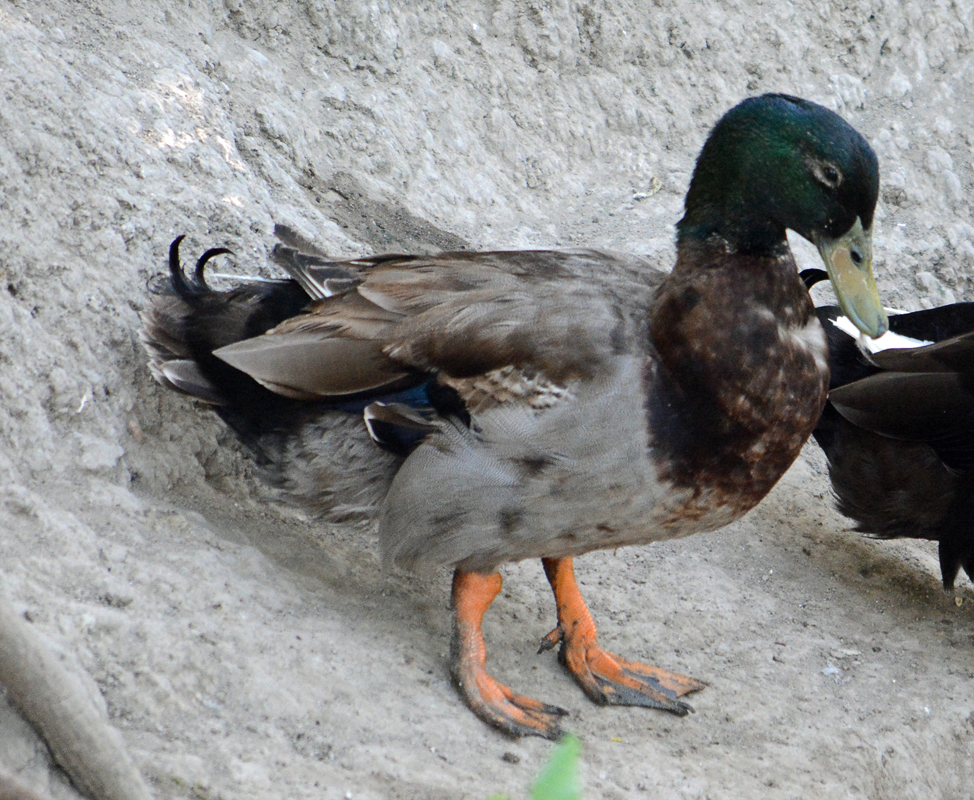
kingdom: Animalia
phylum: Chordata
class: Aves
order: Anseriformes
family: Anatidae
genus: Anas
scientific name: Anas platyrhynchos
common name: Mallard
